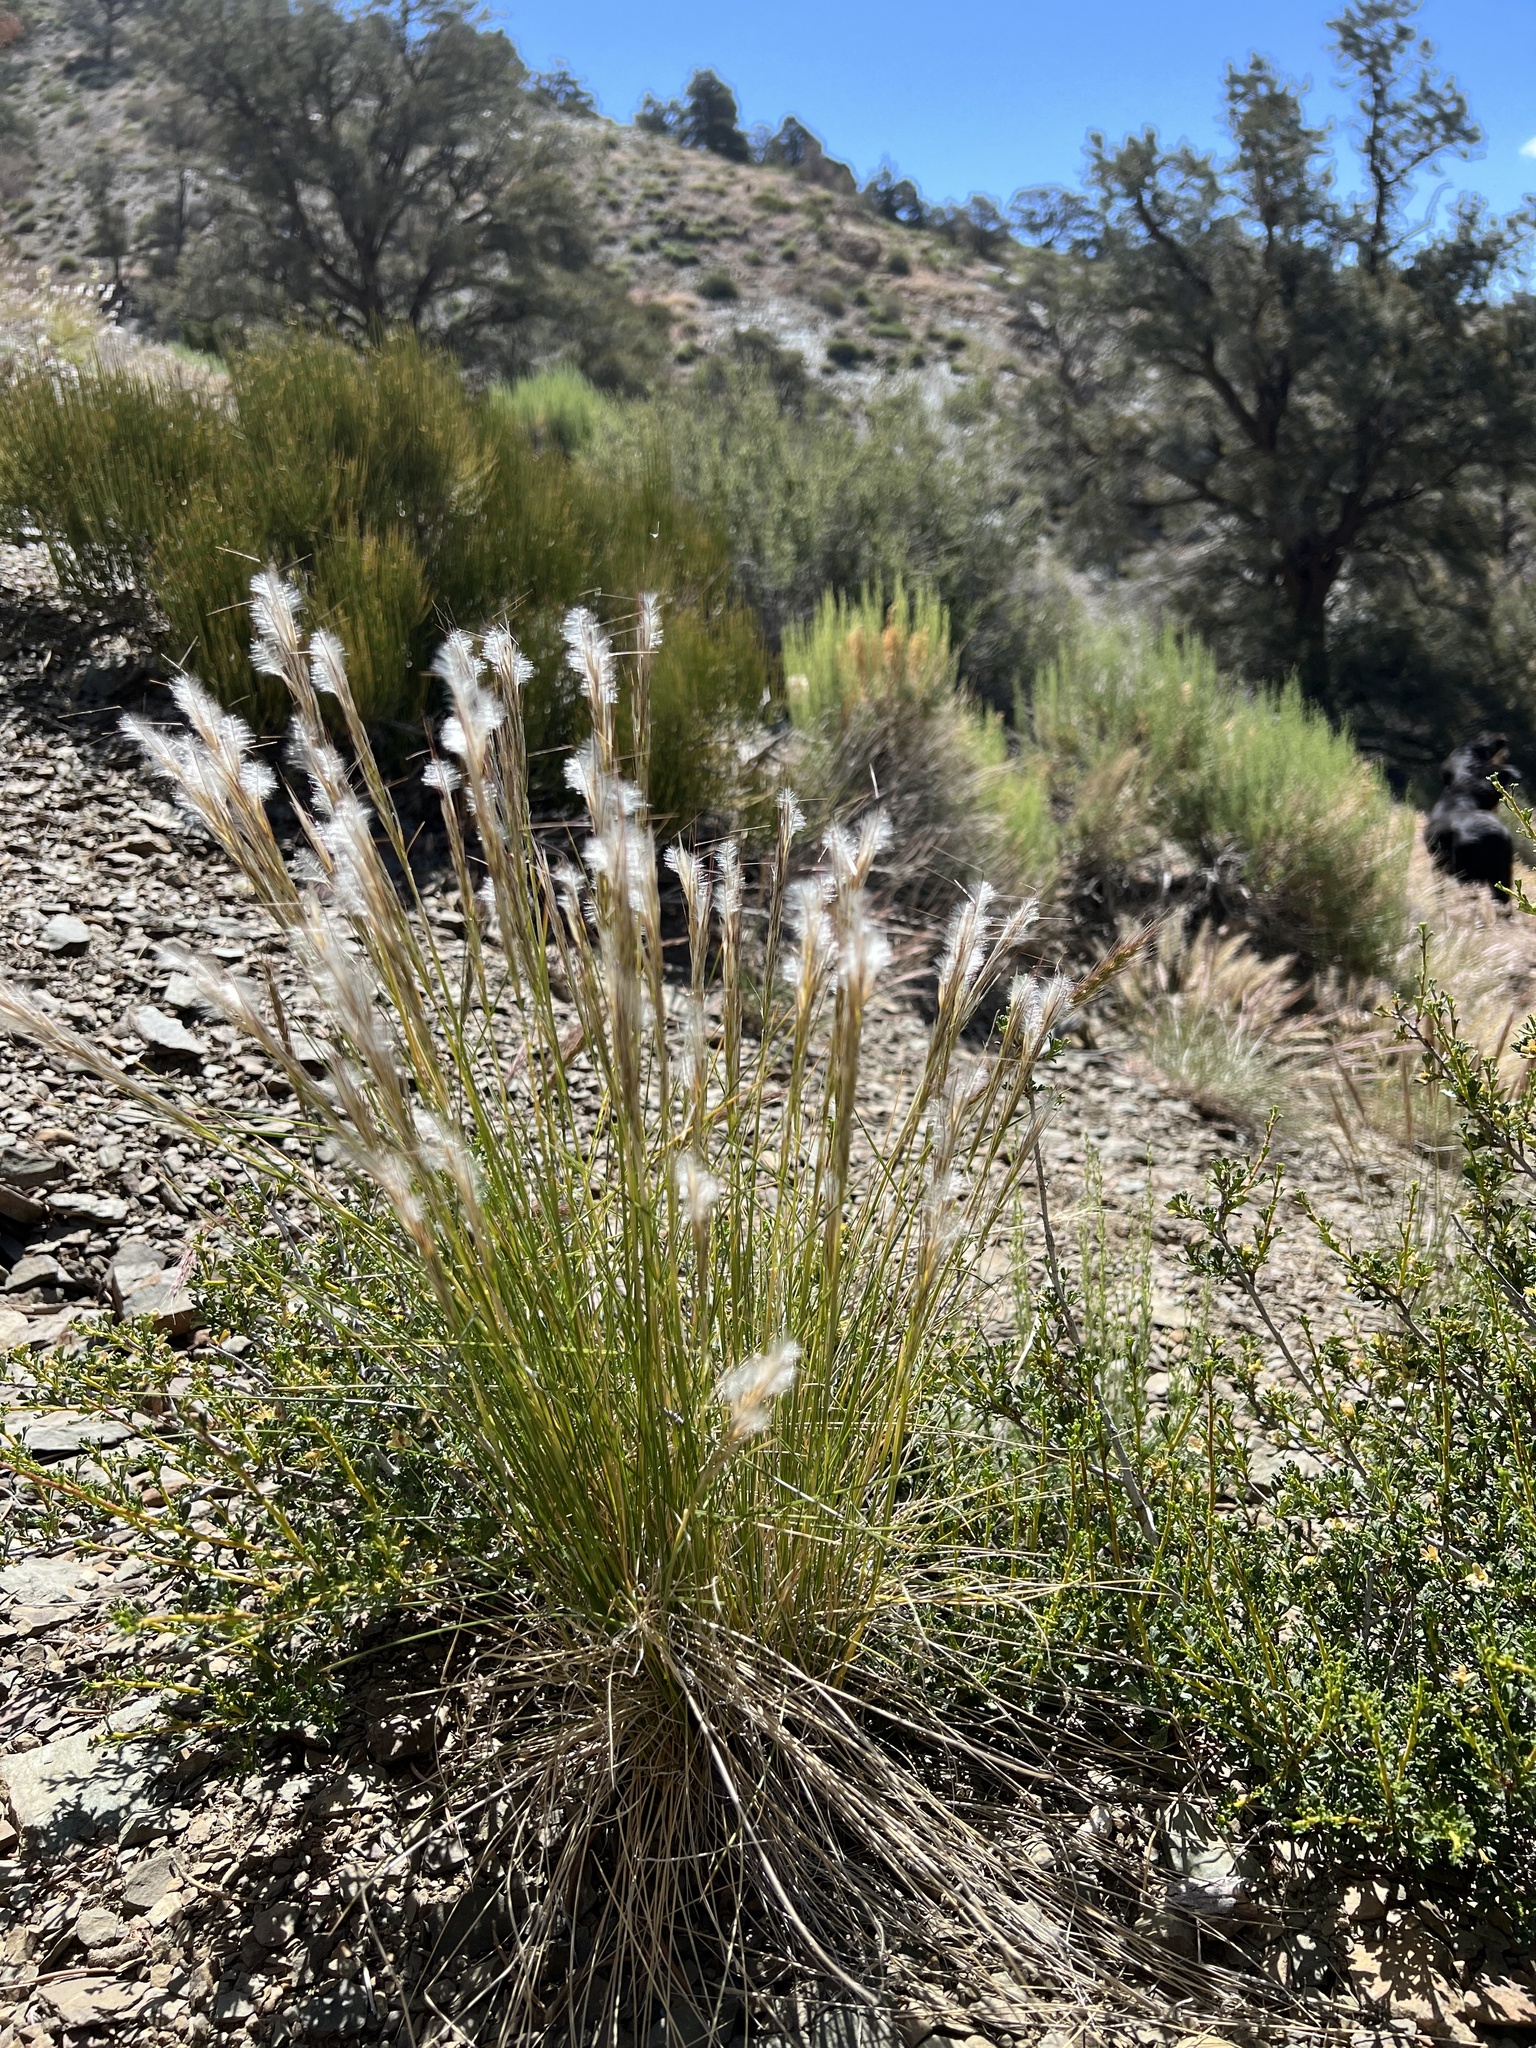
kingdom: Plantae
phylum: Tracheophyta
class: Liliopsida
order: Poales
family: Poaceae
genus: Pappostipa
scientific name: Pappostipa speciosa
